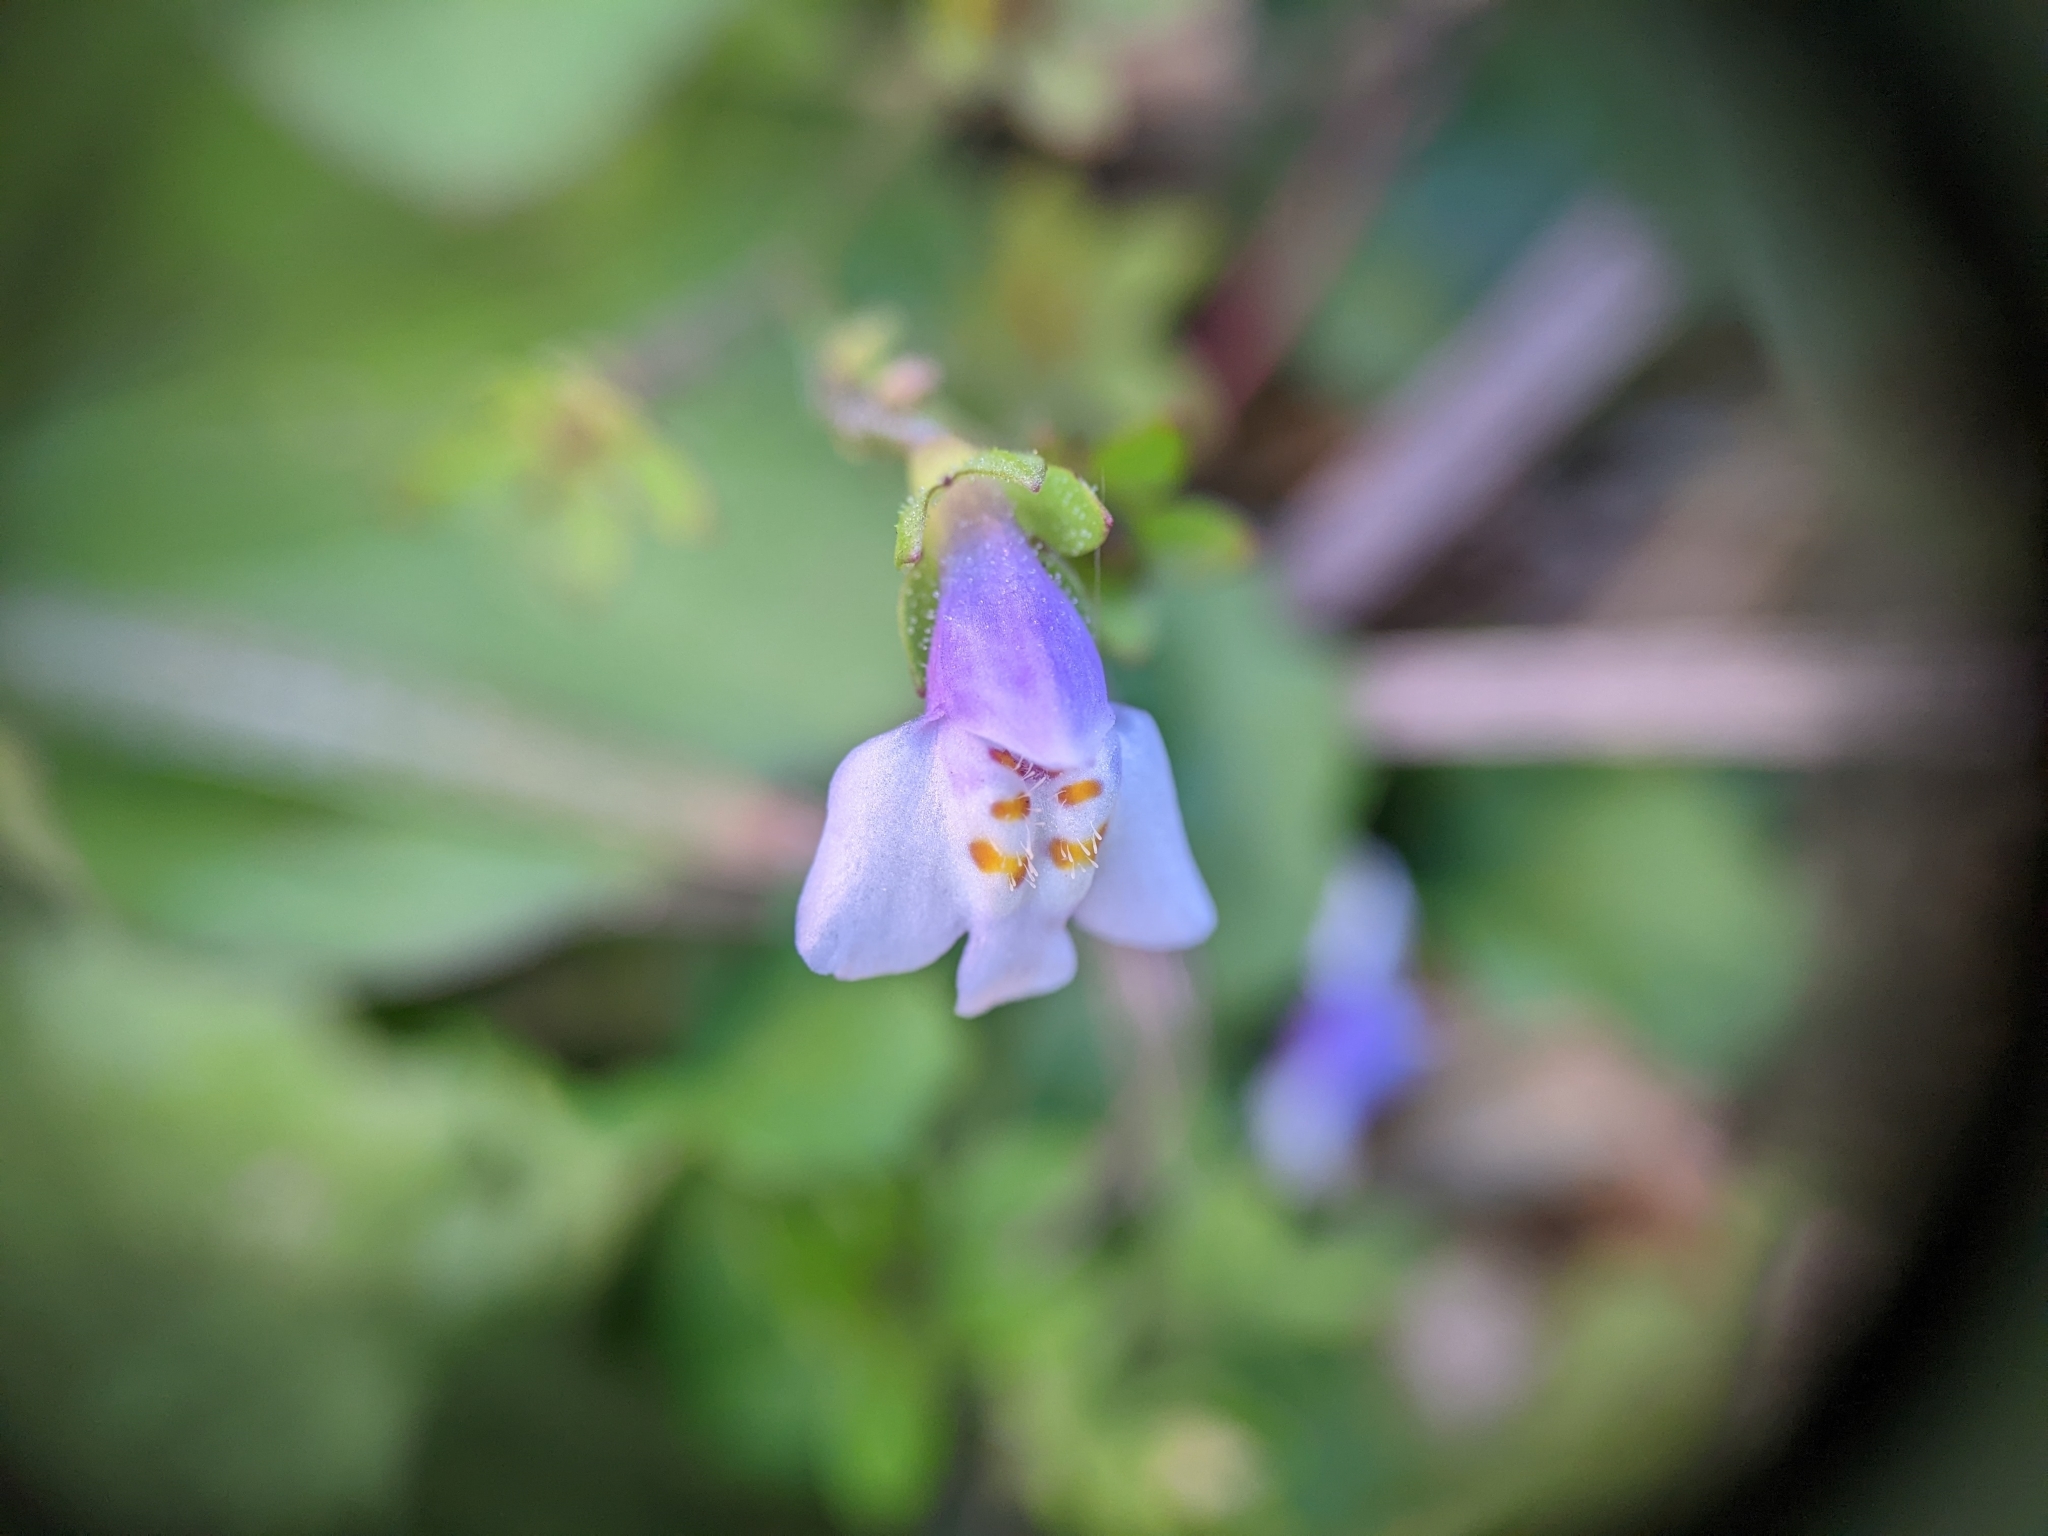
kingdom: Plantae
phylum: Tracheophyta
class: Magnoliopsida
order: Lamiales
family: Mazaceae
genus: Mazus
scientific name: Mazus pumilus
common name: Japanese mazus
